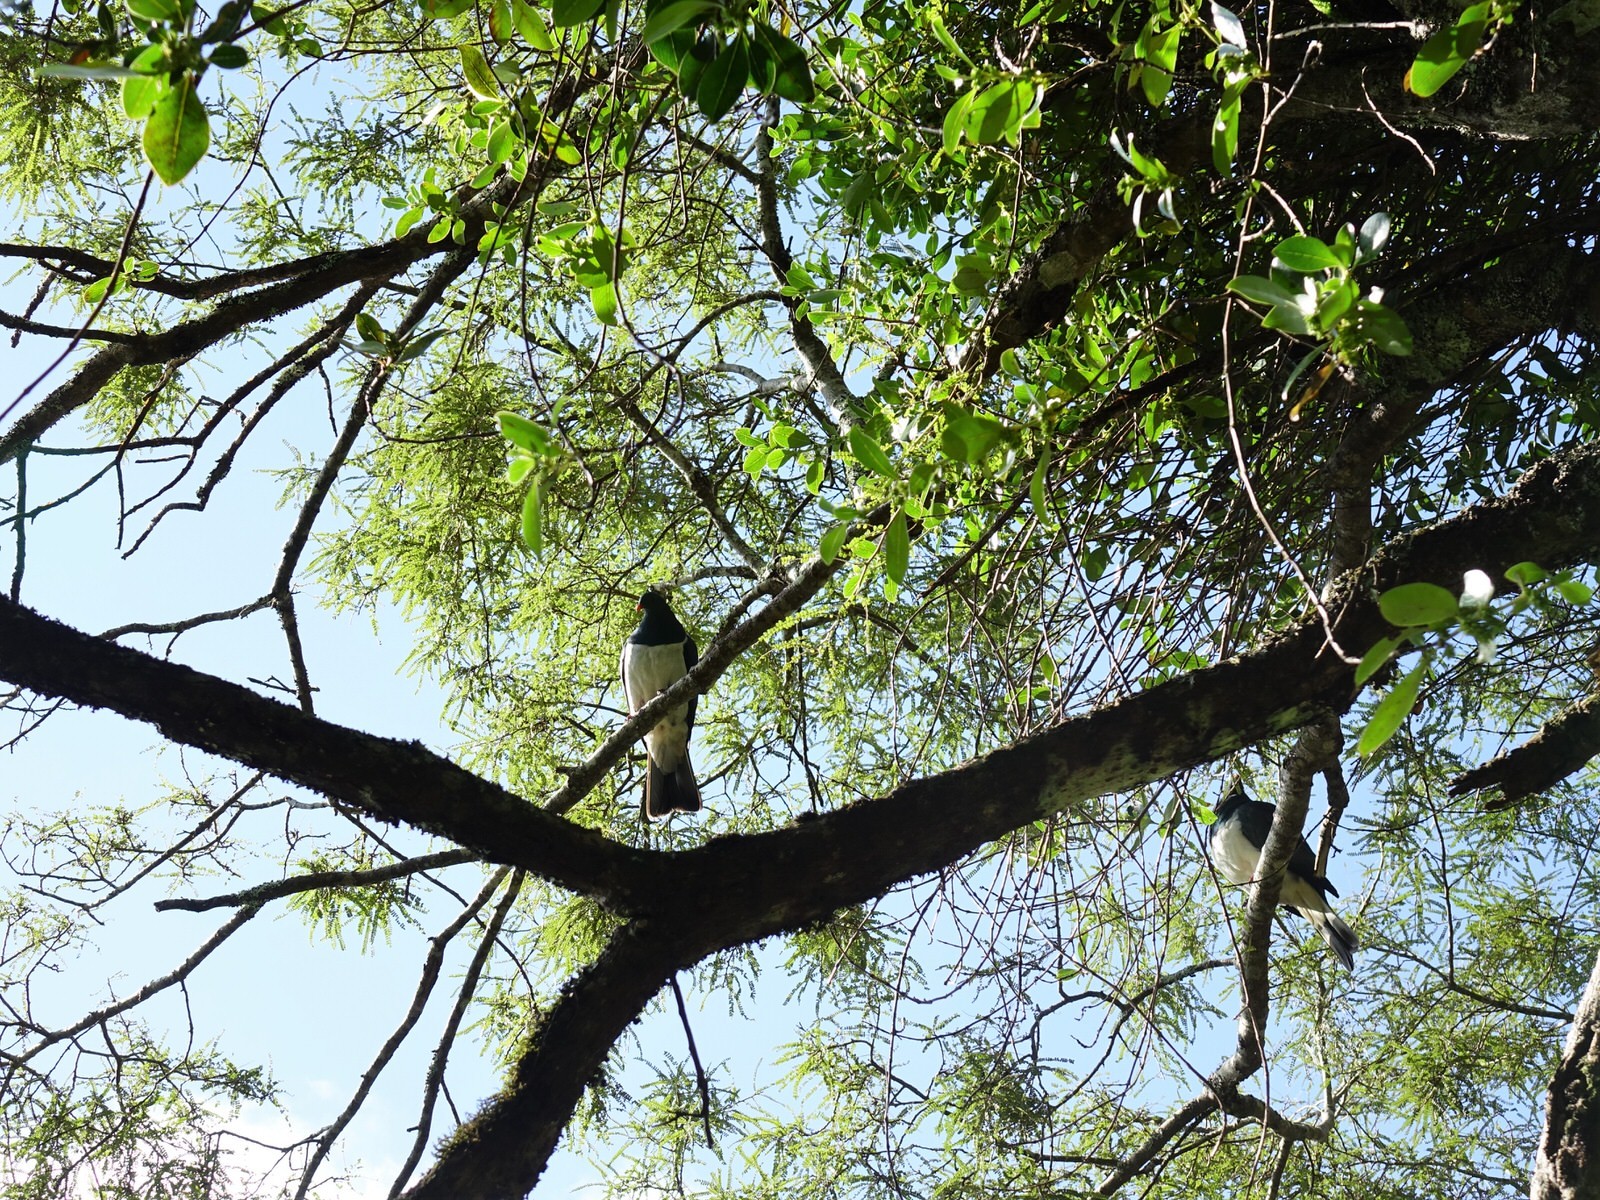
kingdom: Animalia
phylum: Chordata
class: Aves
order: Columbiformes
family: Columbidae
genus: Hemiphaga
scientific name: Hemiphaga novaeseelandiae
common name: New zealand pigeon
